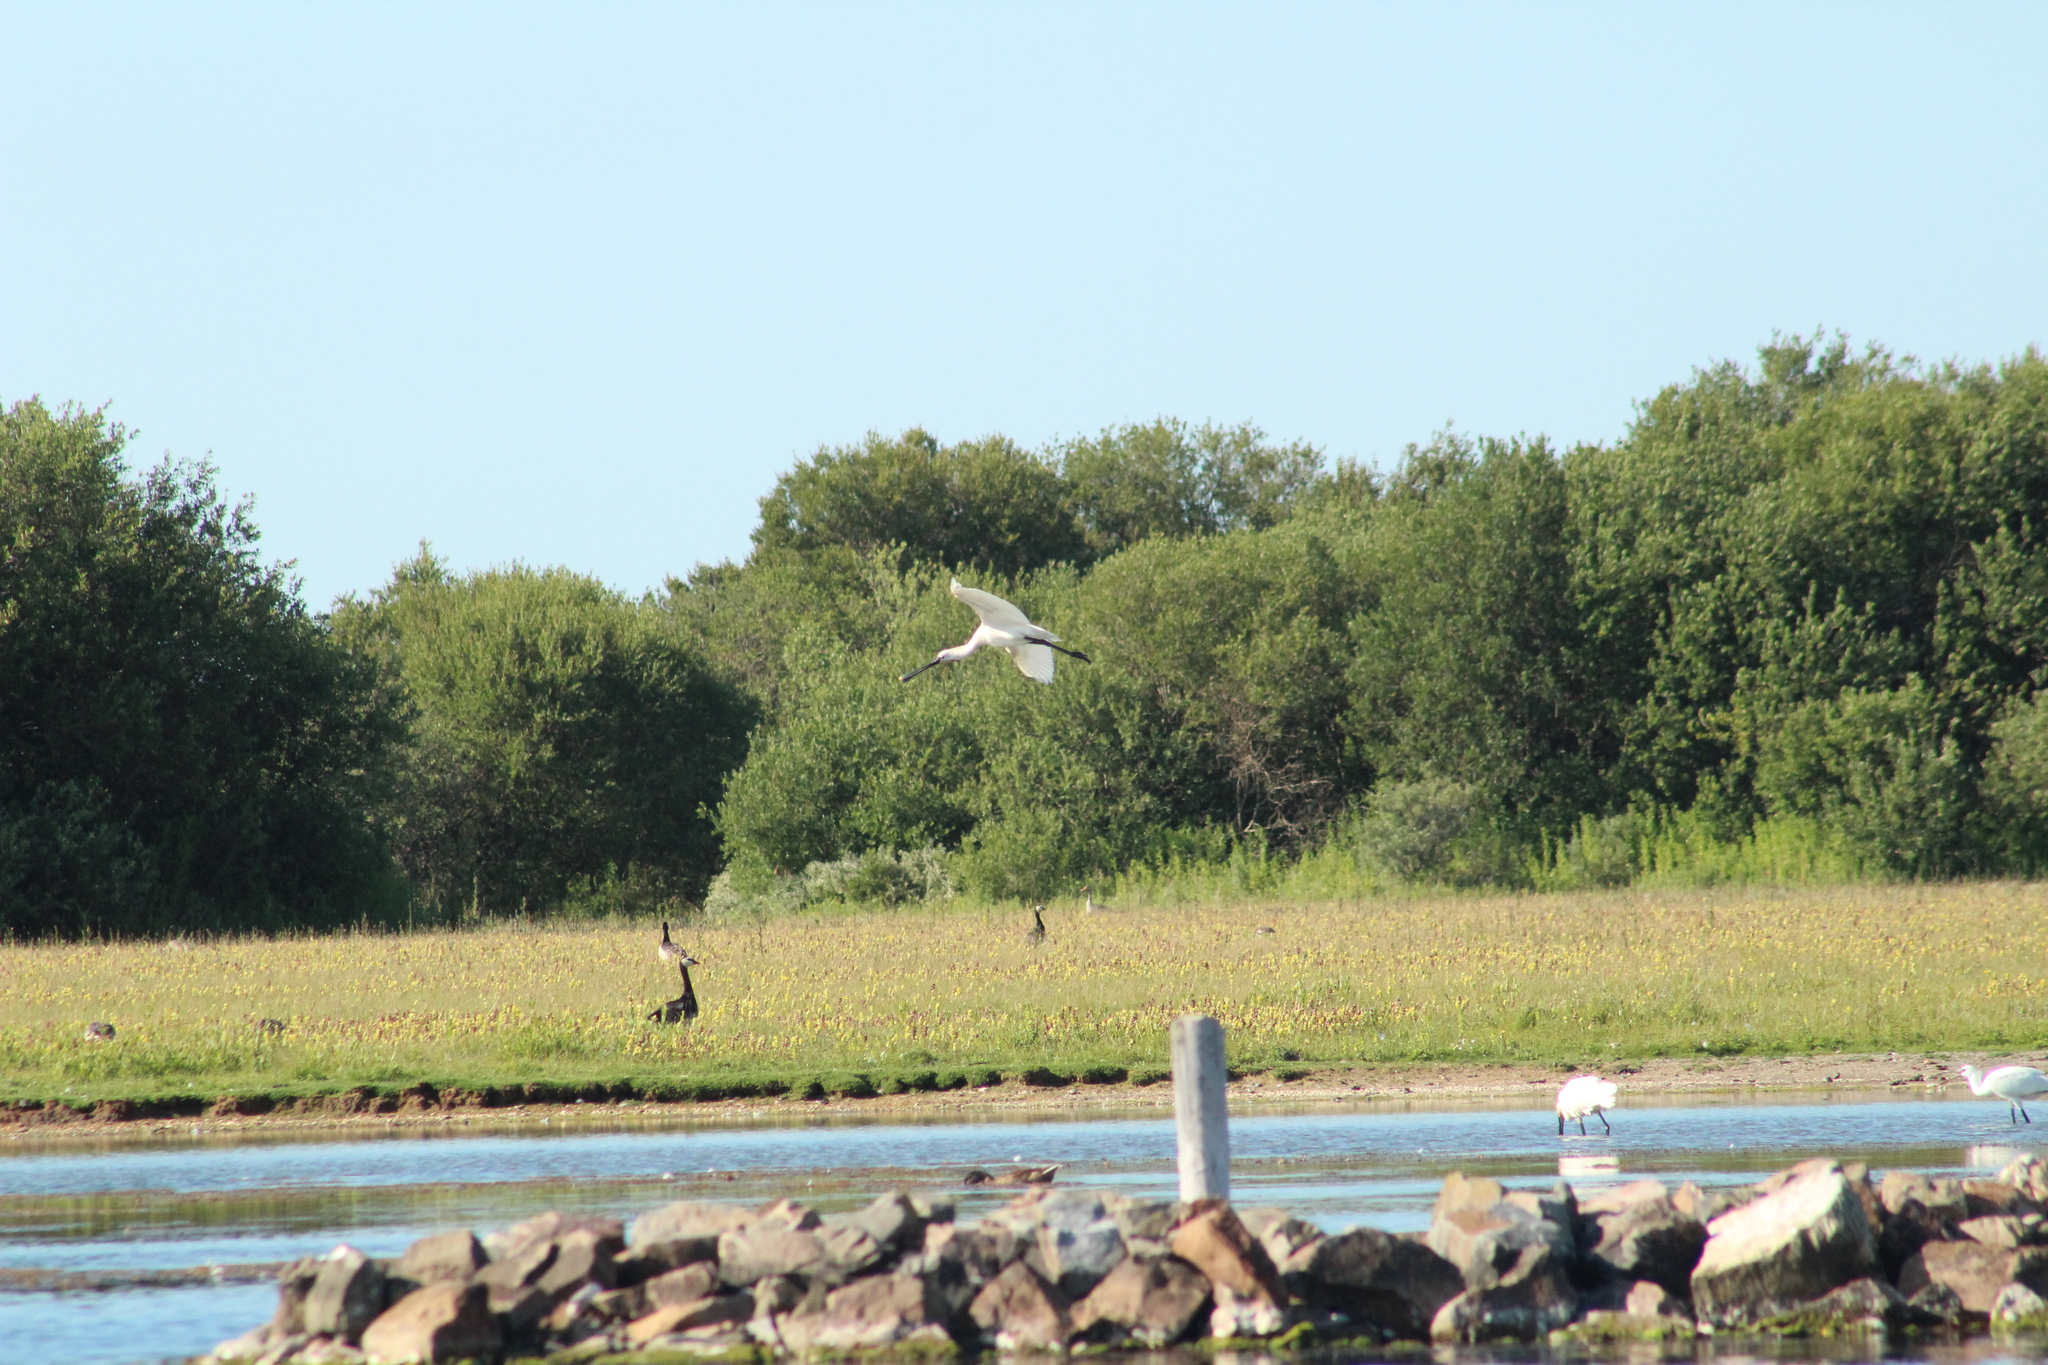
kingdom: Animalia
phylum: Chordata
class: Aves
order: Pelecaniformes
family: Threskiornithidae
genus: Platalea
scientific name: Platalea leucorodia
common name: Eurasian spoonbill
